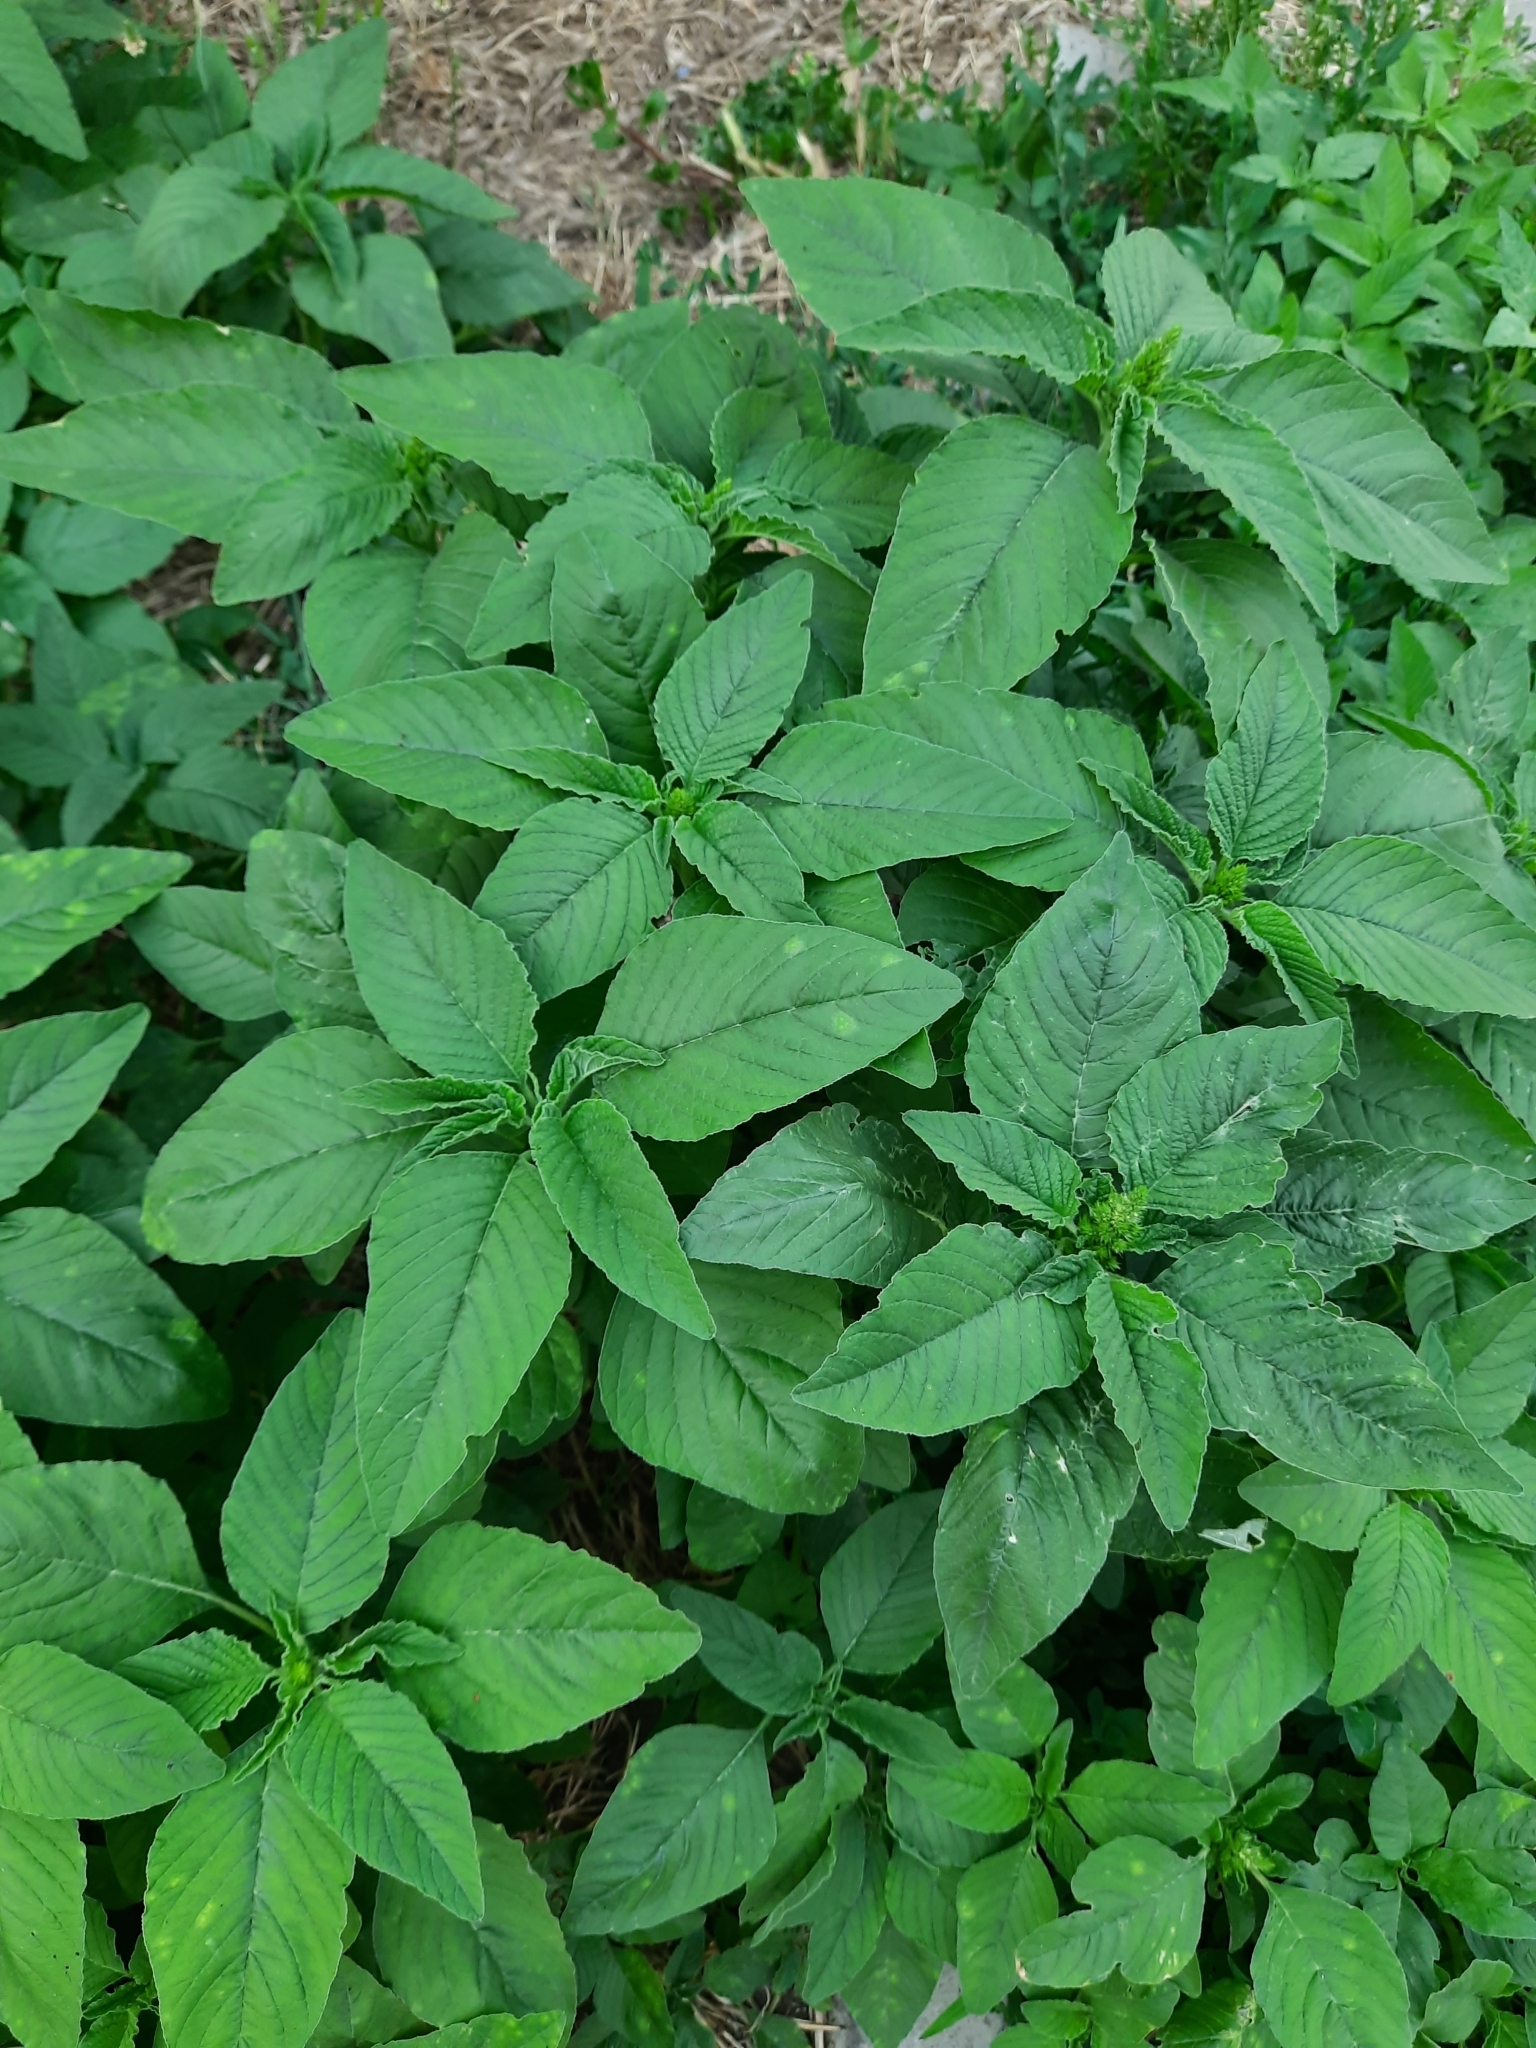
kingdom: Plantae
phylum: Tracheophyta
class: Magnoliopsida
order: Caryophyllales
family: Amaranthaceae
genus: Amaranthus
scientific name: Amaranthus retroflexus
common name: Redroot amaranth
